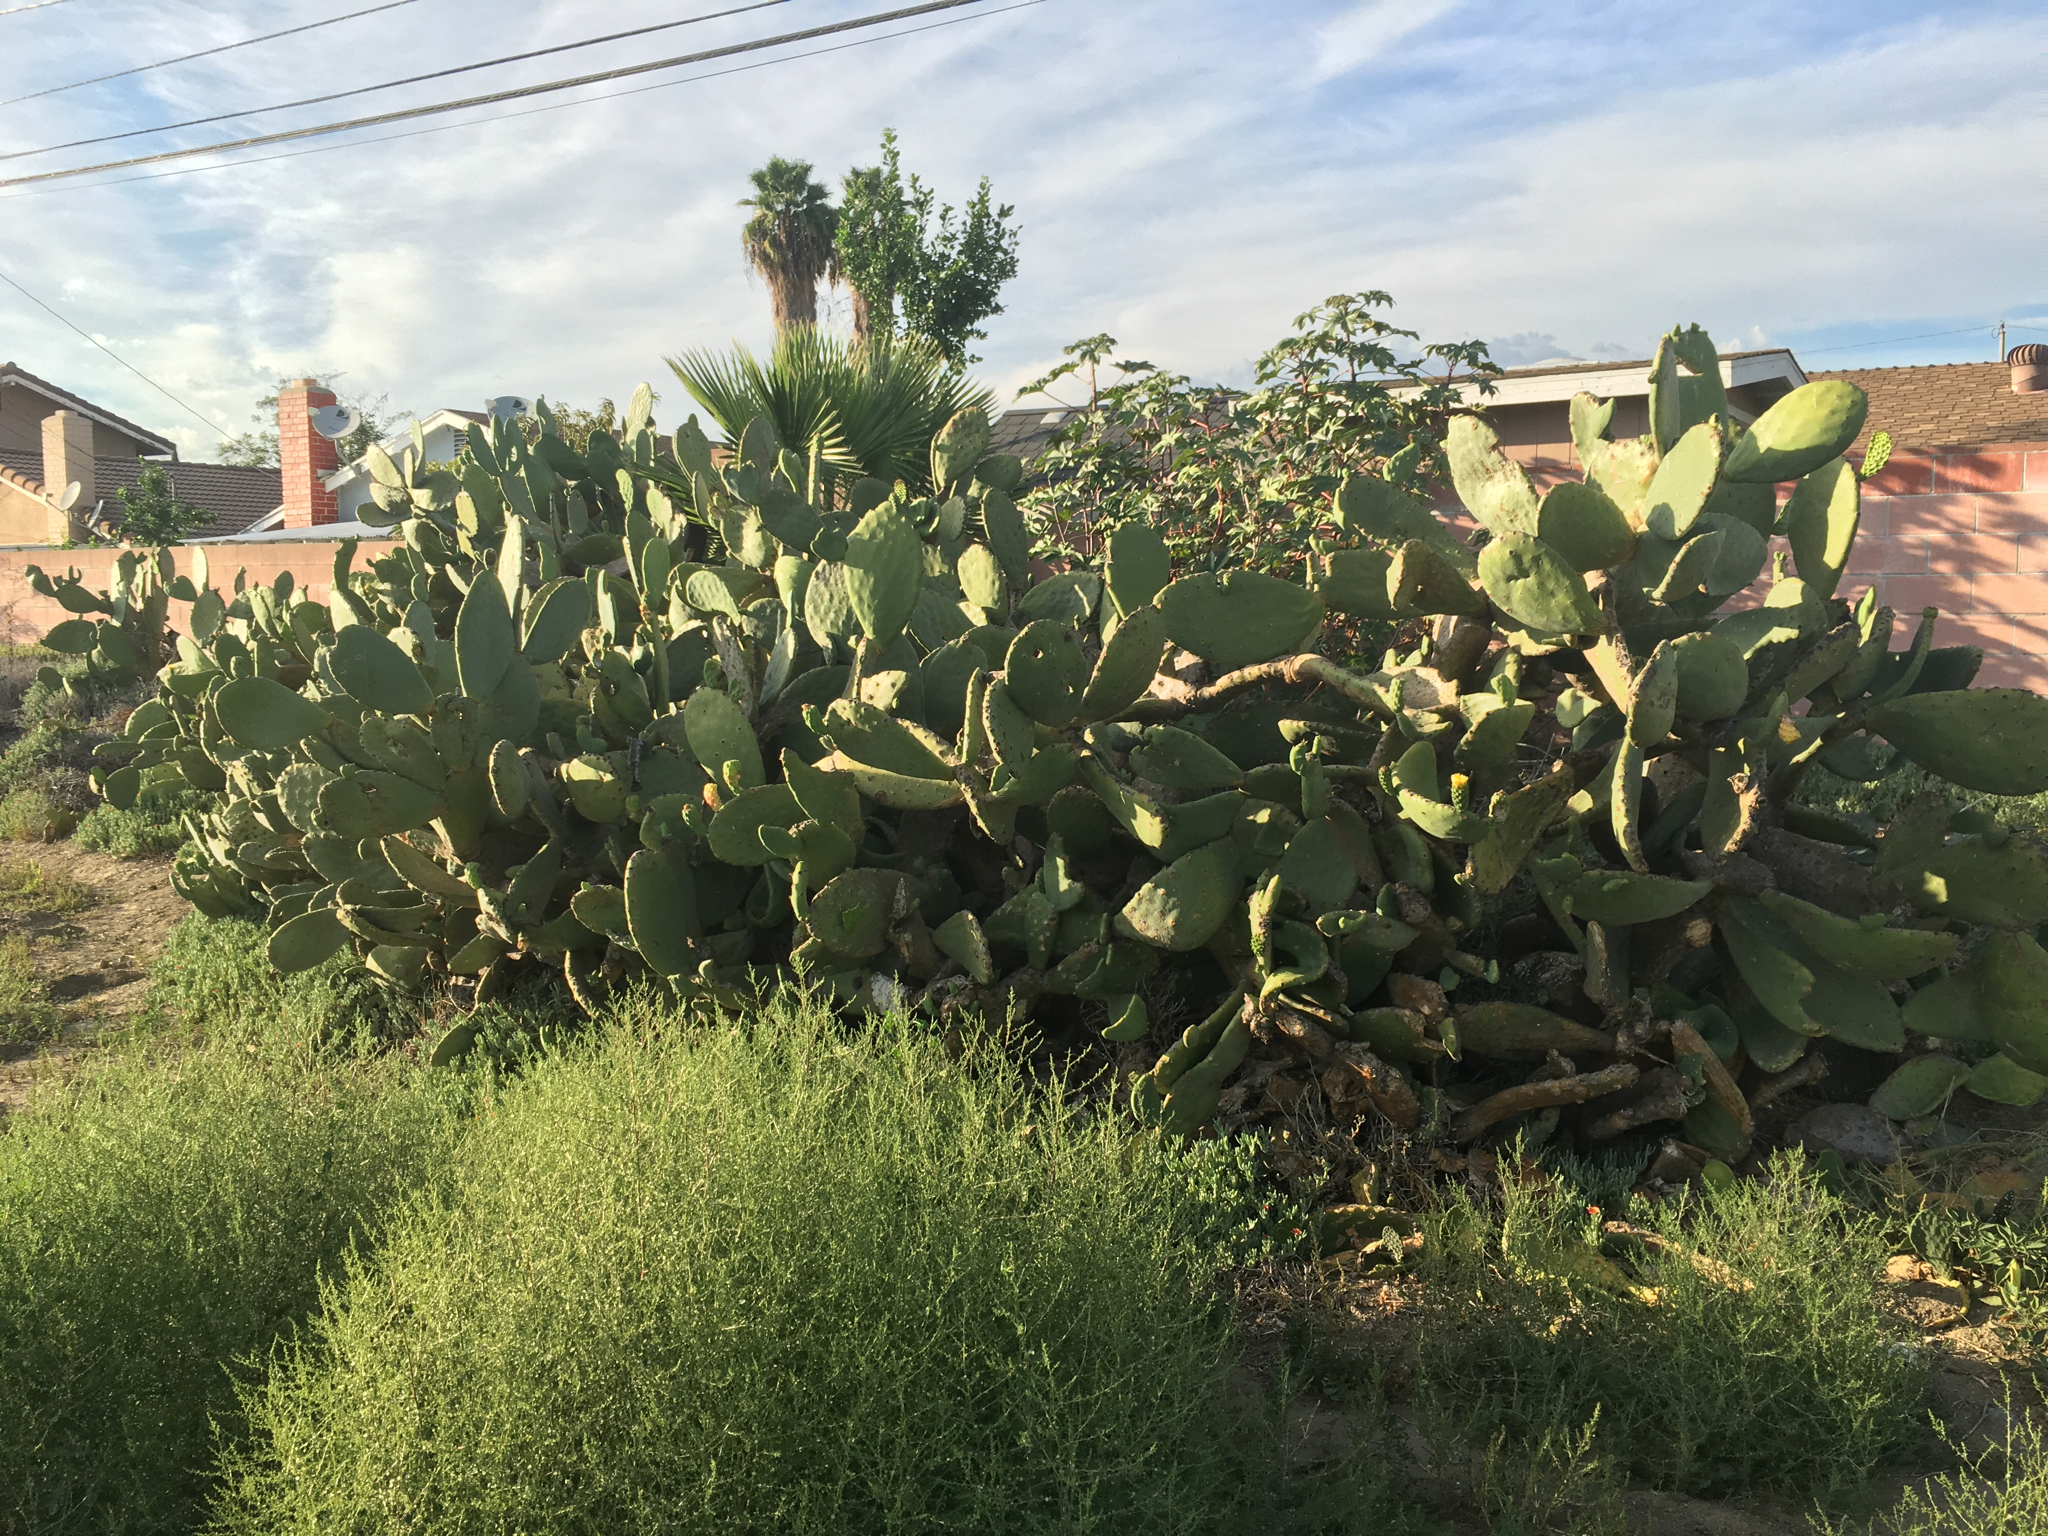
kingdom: Plantae
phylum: Tracheophyta
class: Magnoliopsida
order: Caryophyllales
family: Cactaceae
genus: Opuntia
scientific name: Opuntia ficus-indica
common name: Barbary fig
